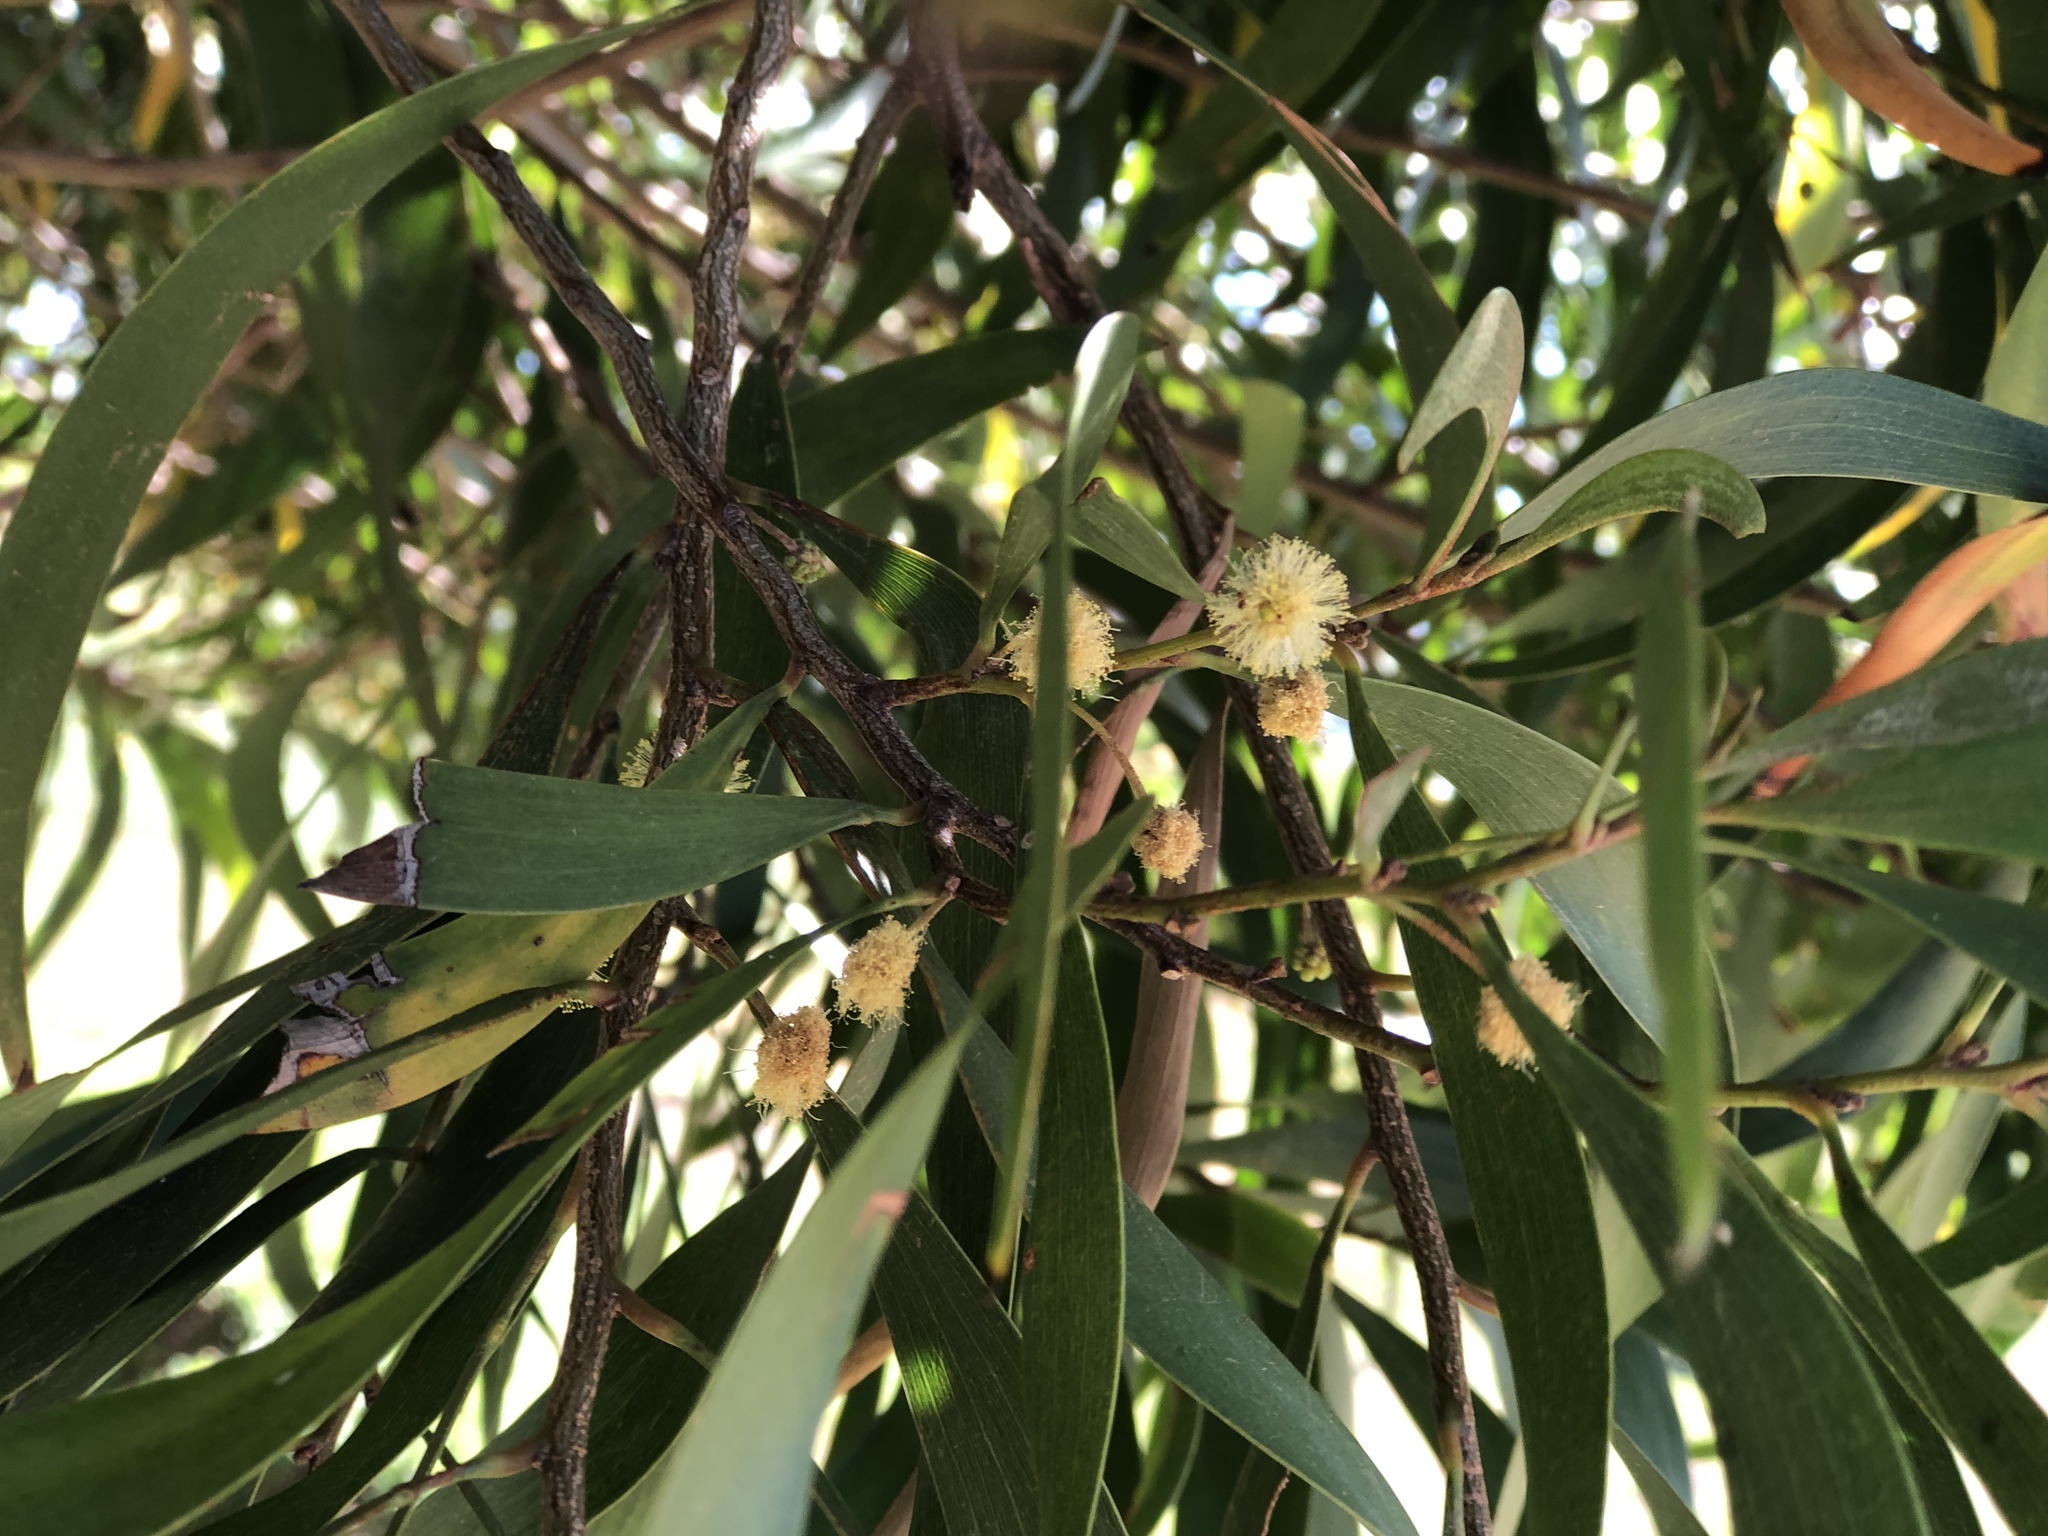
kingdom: Plantae
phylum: Tracheophyta
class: Magnoliopsida
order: Fabales
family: Fabaceae
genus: Acacia
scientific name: Acacia koa
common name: Gray koa
